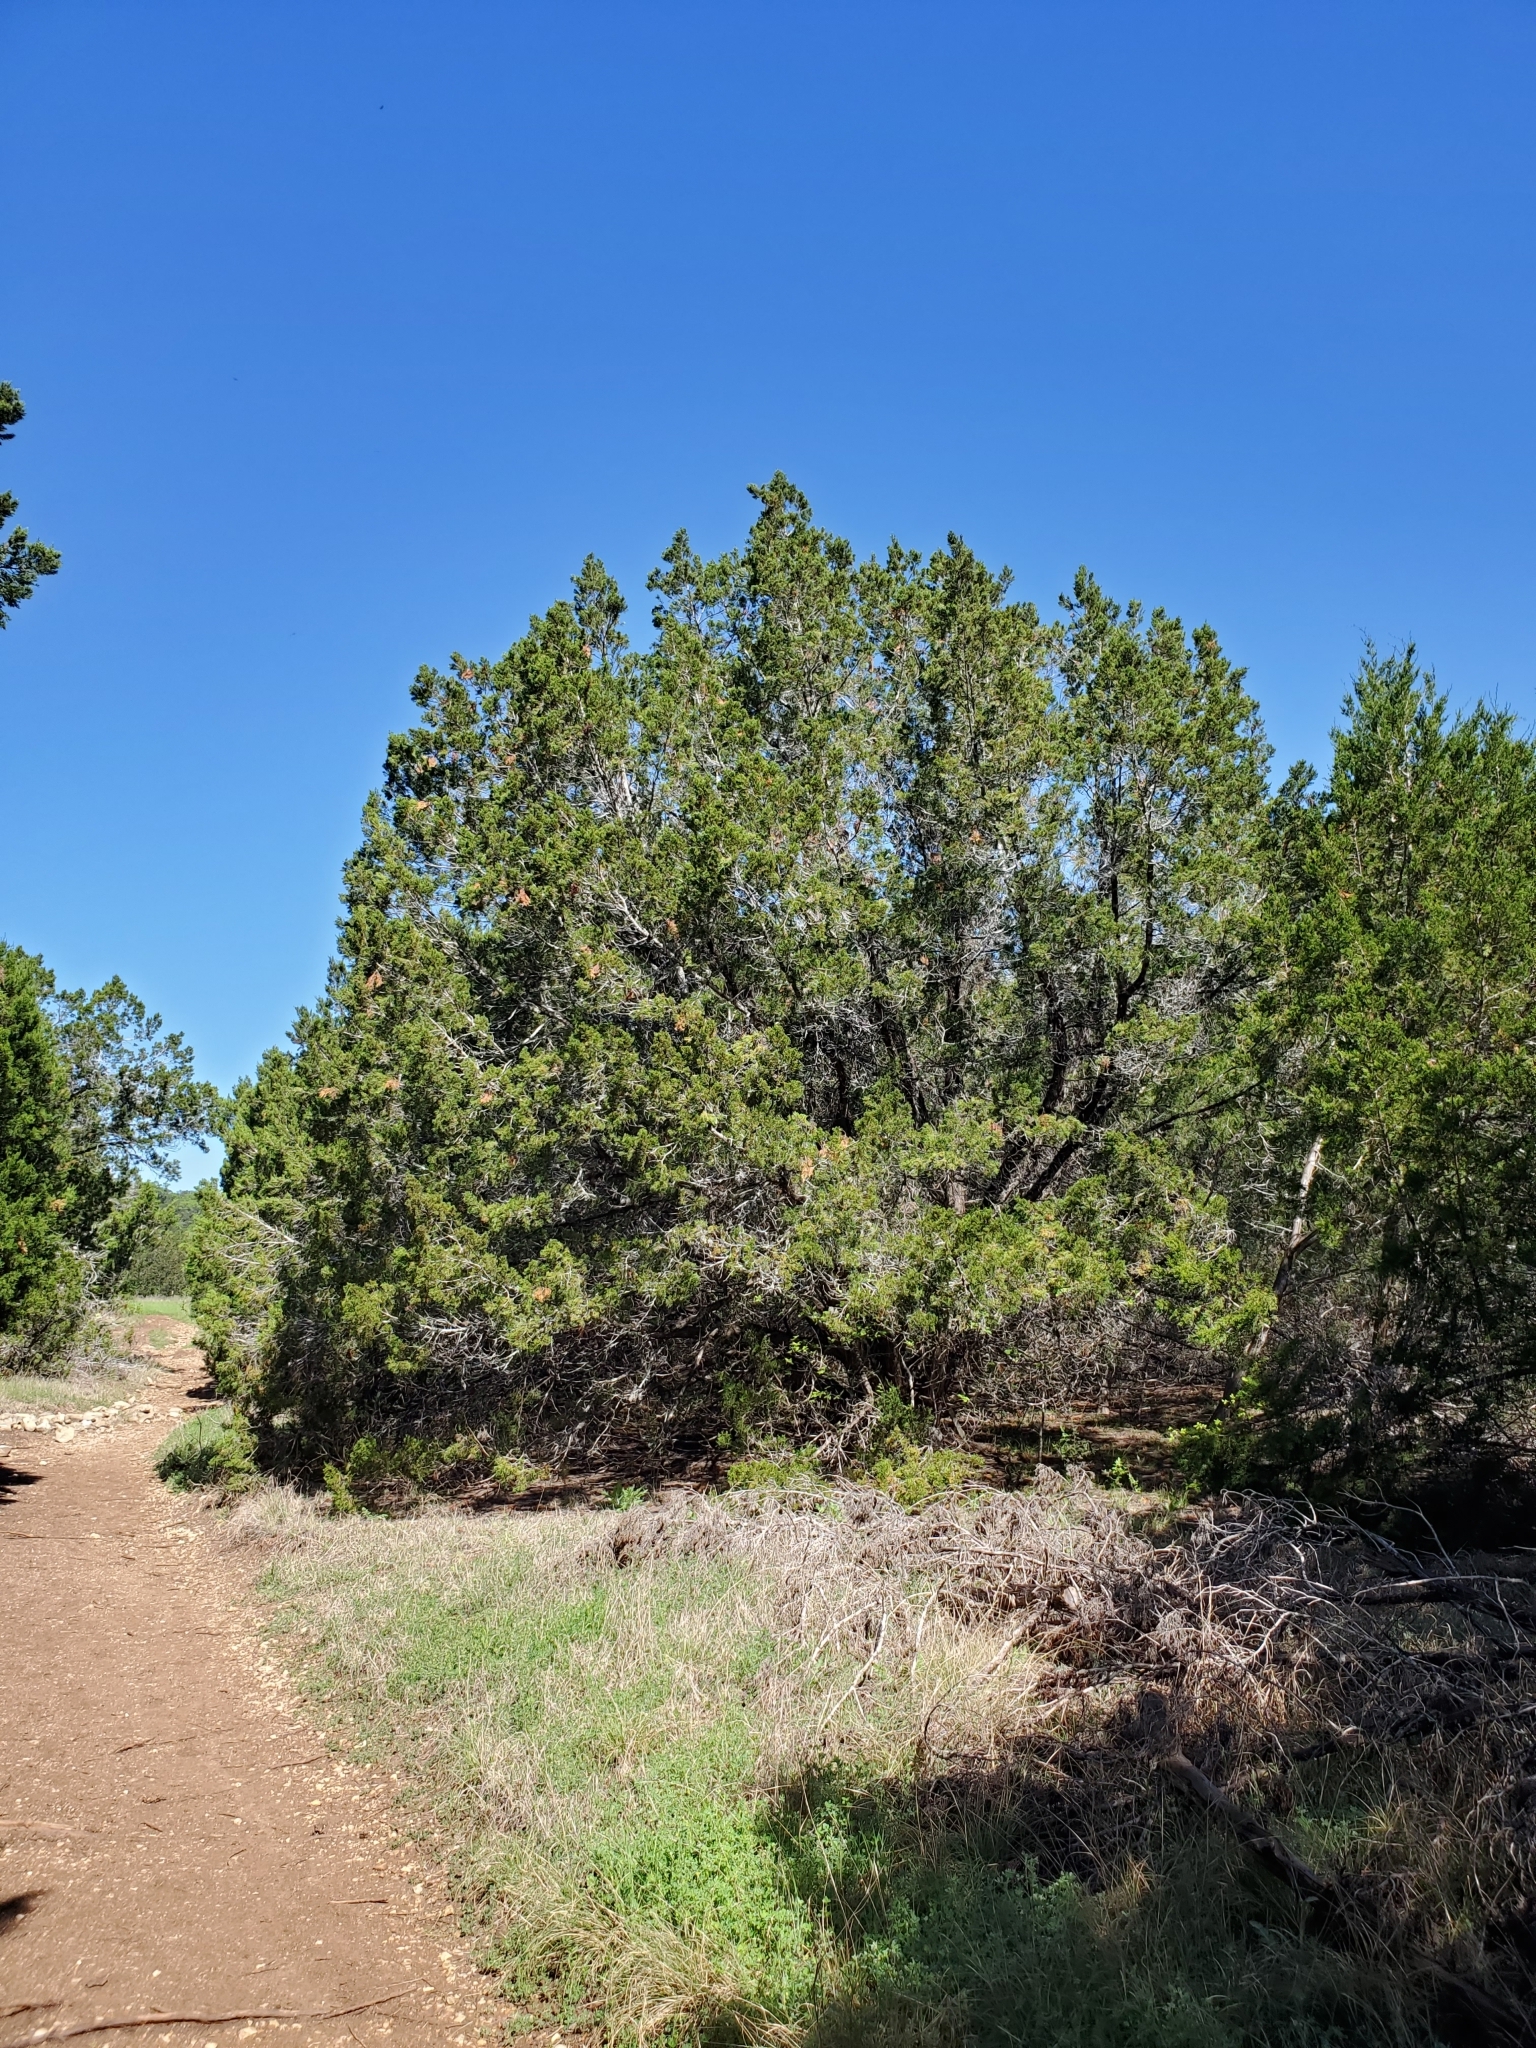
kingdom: Plantae
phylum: Tracheophyta
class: Pinopsida
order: Pinales
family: Cupressaceae
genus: Juniperus
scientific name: Juniperus ashei
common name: Mexican juniper
